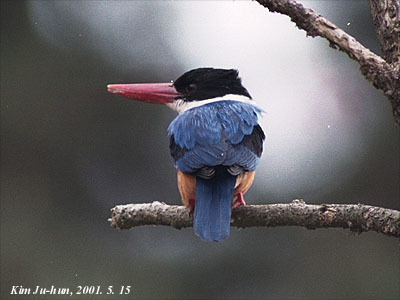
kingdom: Animalia
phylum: Chordata
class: Aves
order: Coraciiformes
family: Alcedinidae
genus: Halcyon
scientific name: Halcyon pileata
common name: Black-capped kingfisher
